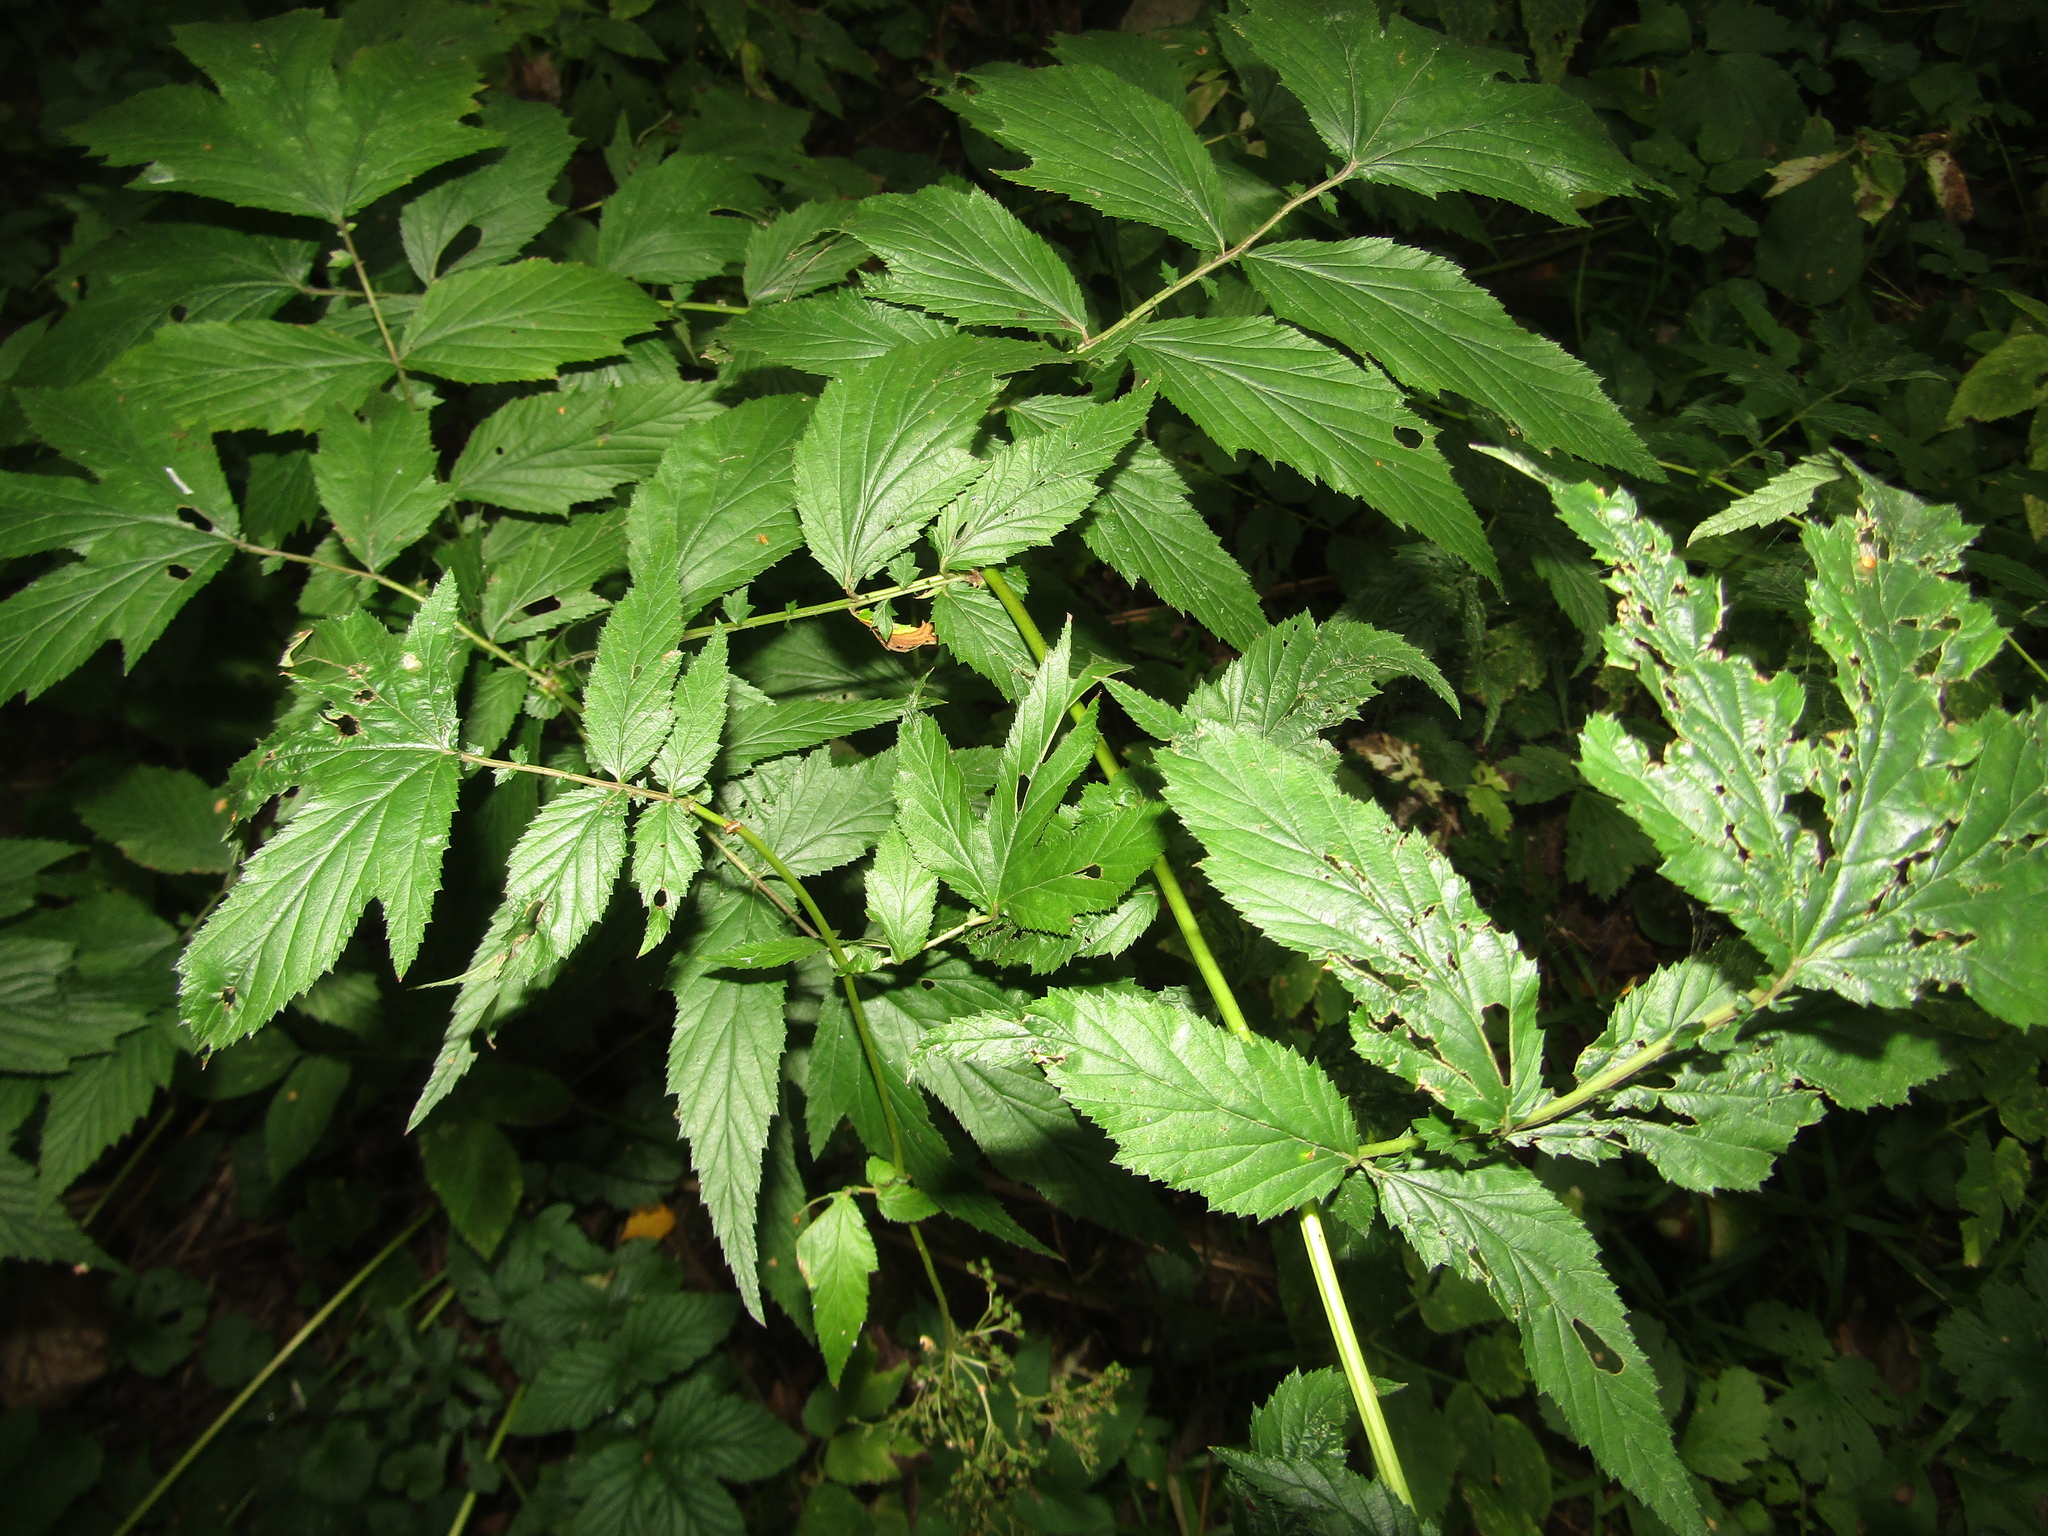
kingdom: Plantae
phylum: Tracheophyta
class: Magnoliopsida
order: Rosales
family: Rosaceae
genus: Filipendula
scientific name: Filipendula ulmaria
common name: Meadowsweet
